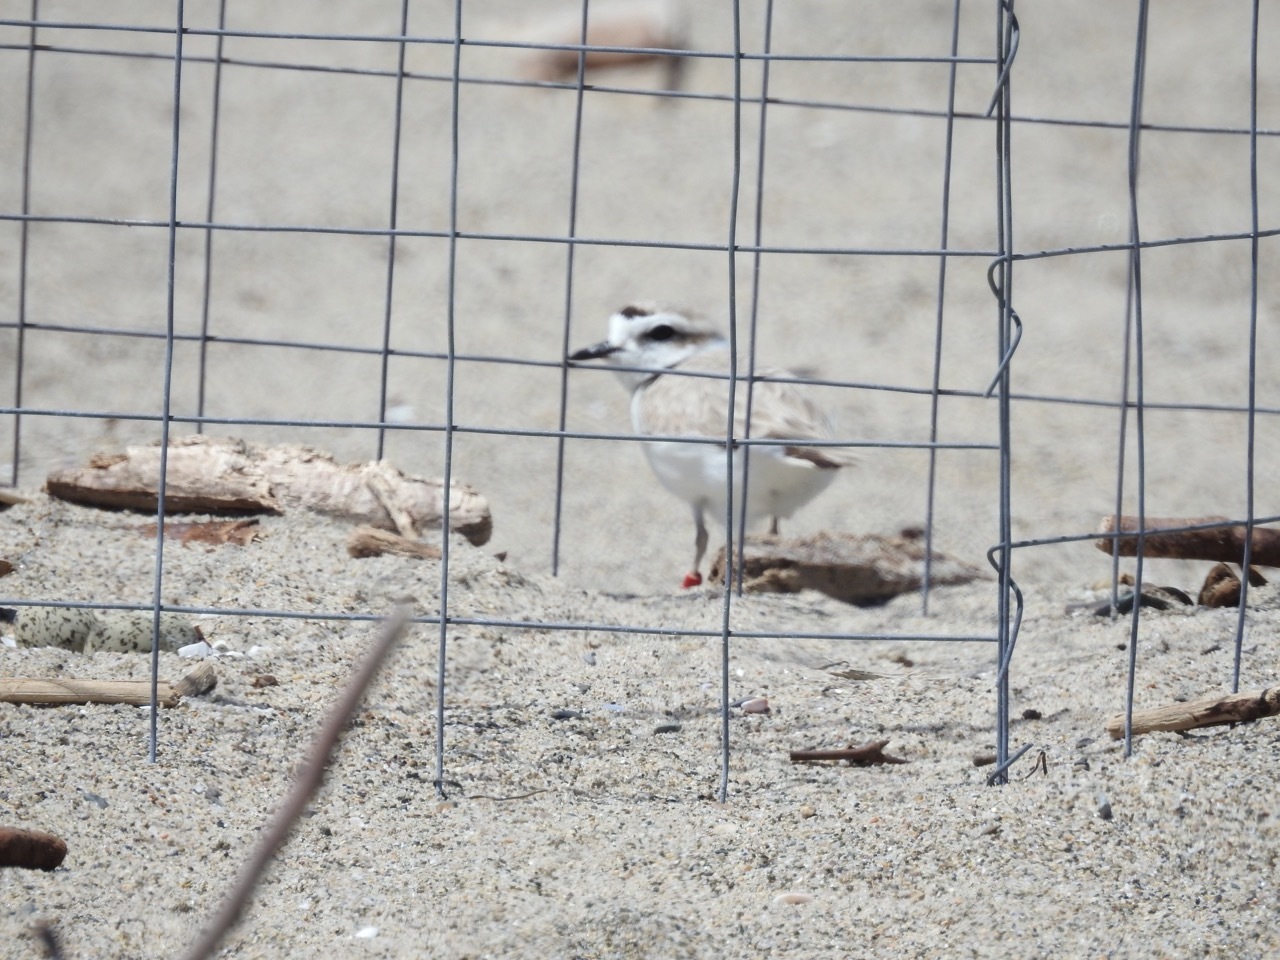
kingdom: Animalia
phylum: Chordata
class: Aves
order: Charadriiformes
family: Charadriidae
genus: Anarhynchus
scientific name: Anarhynchus
